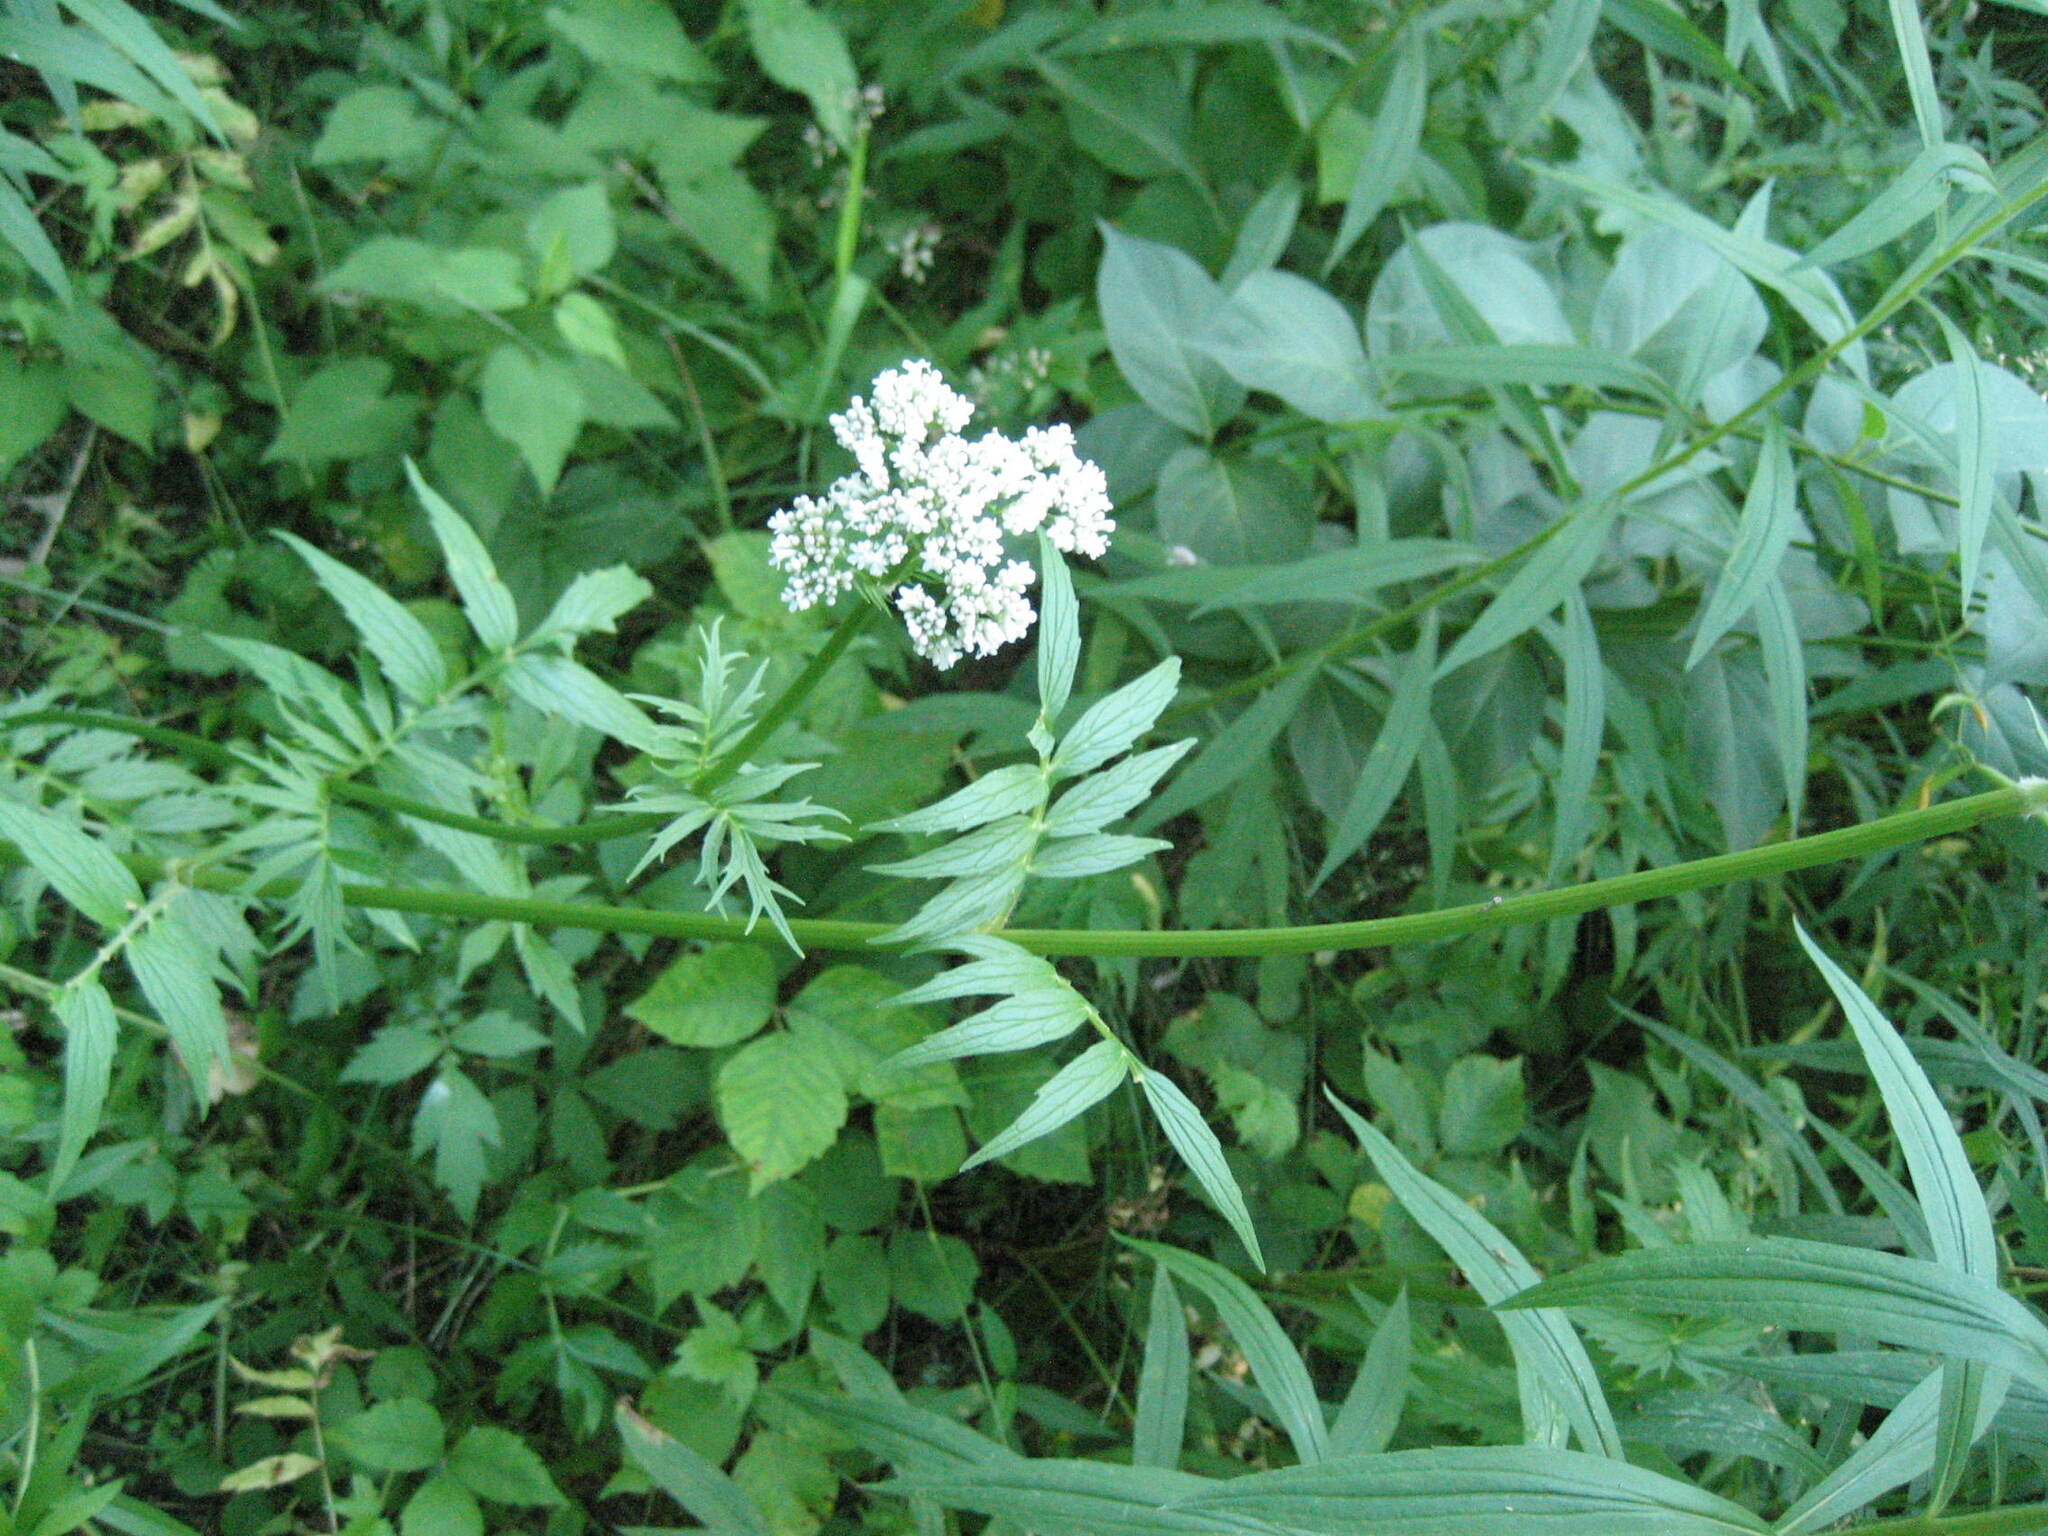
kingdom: Plantae
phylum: Tracheophyta
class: Magnoliopsida
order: Dipsacales
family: Caprifoliaceae
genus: Valeriana
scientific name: Valeriana officinalis
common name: Common valerian
